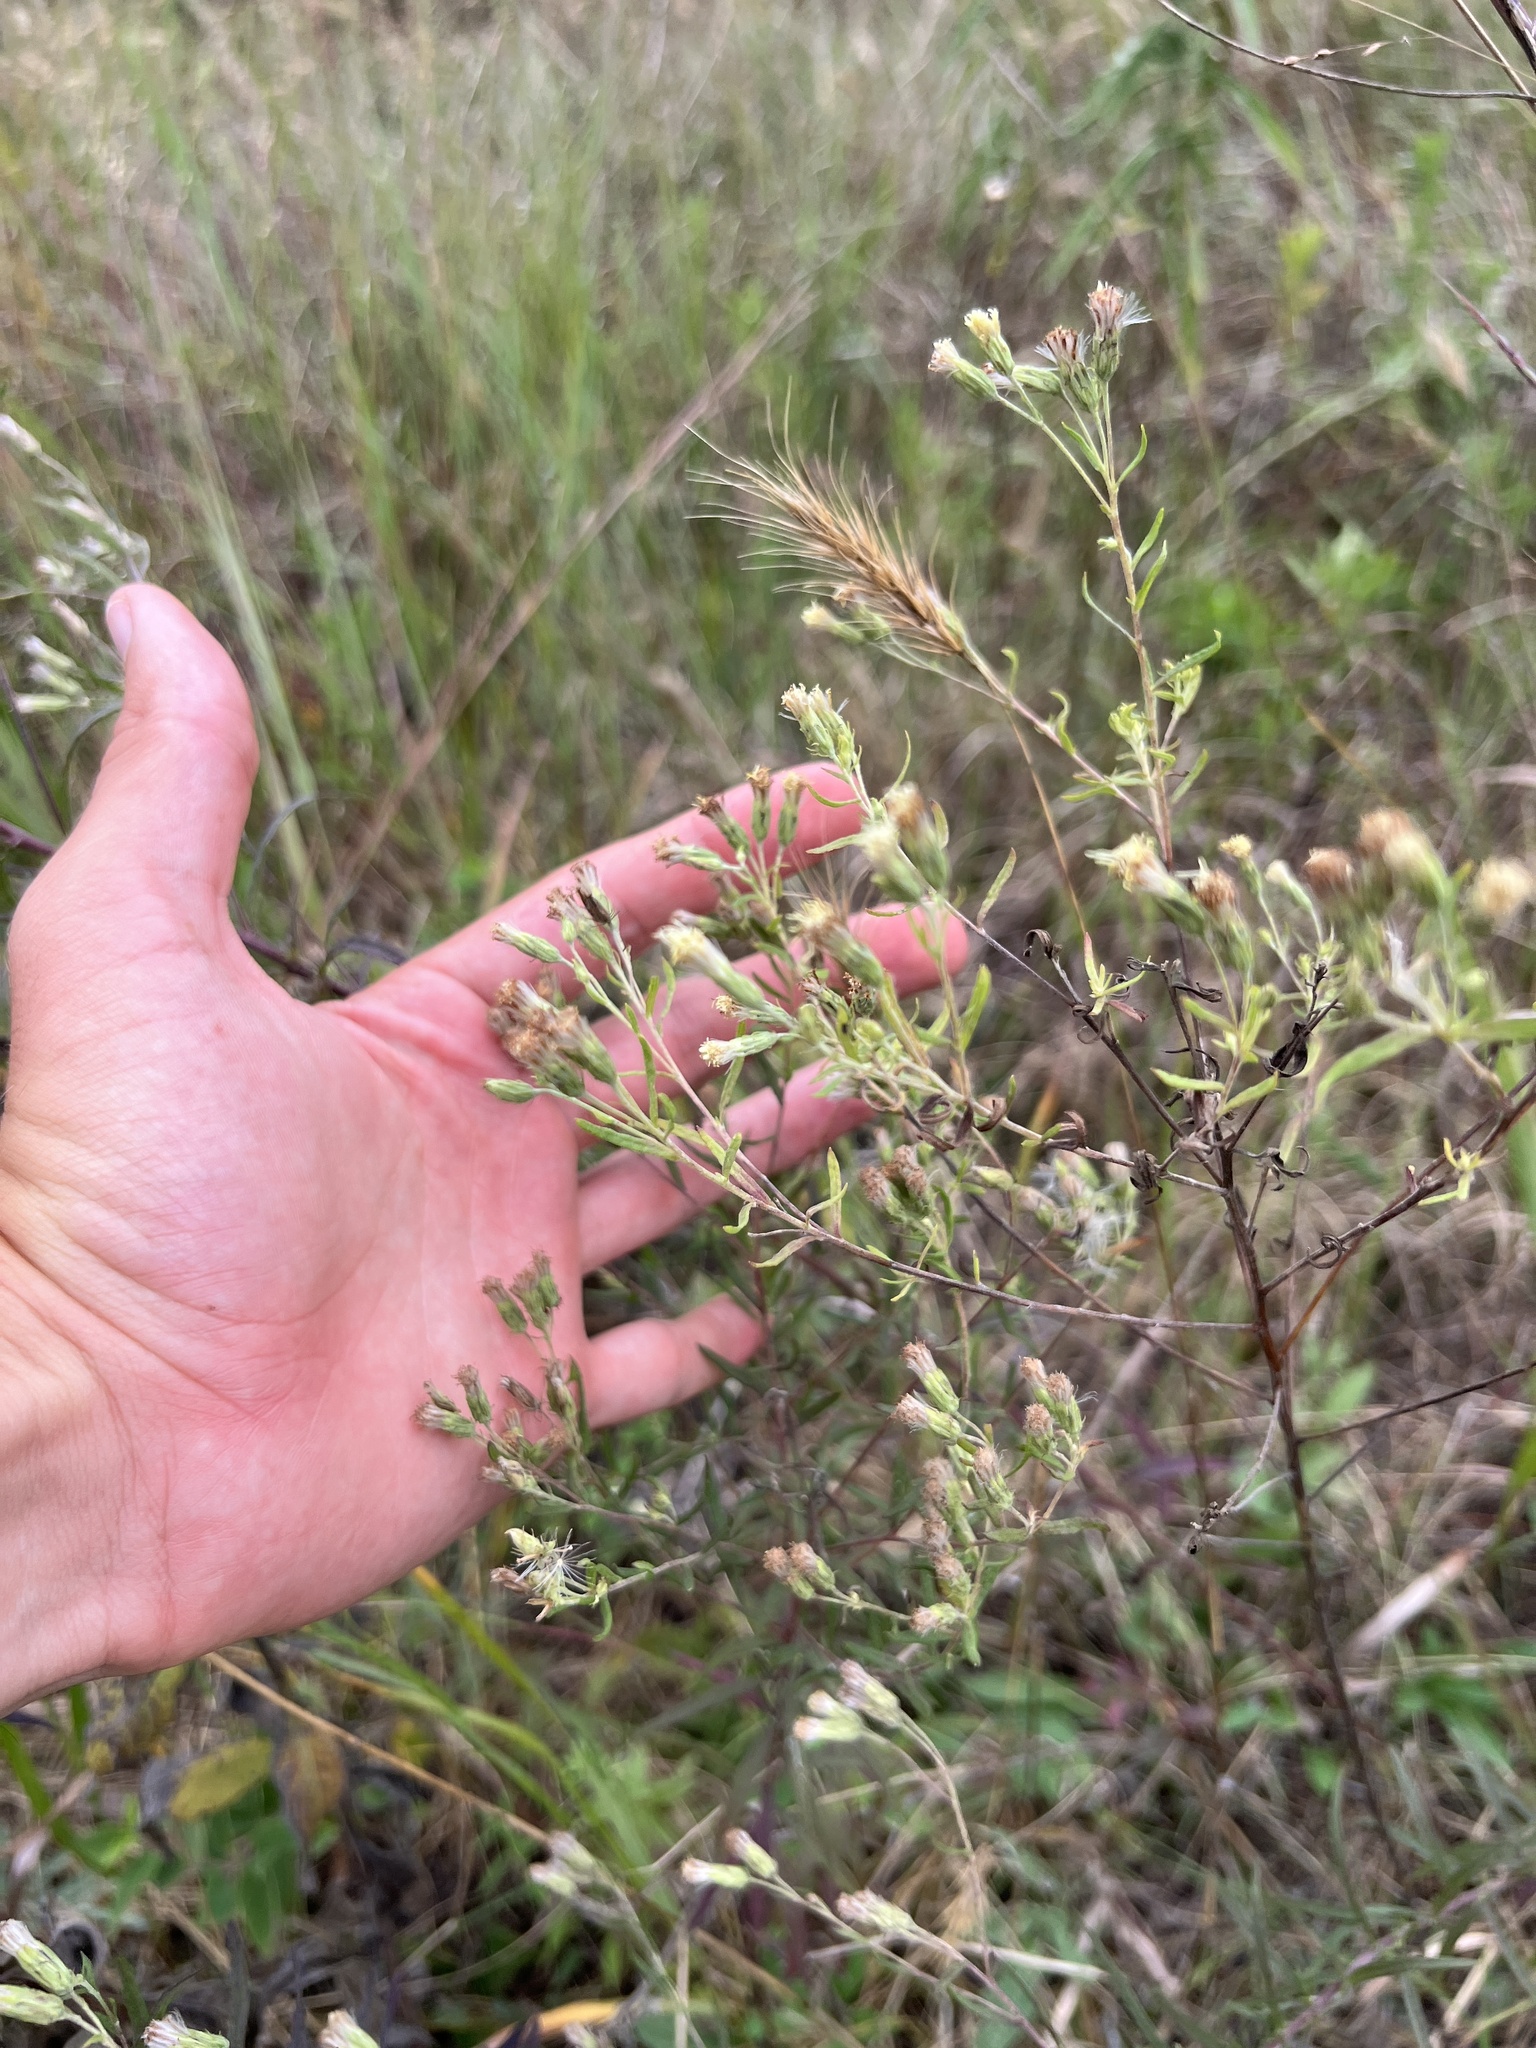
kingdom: Plantae
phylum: Tracheophyta
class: Magnoliopsida
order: Asterales
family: Asteraceae
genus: Brickellia
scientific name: Brickellia eupatorioides
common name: False boneset
